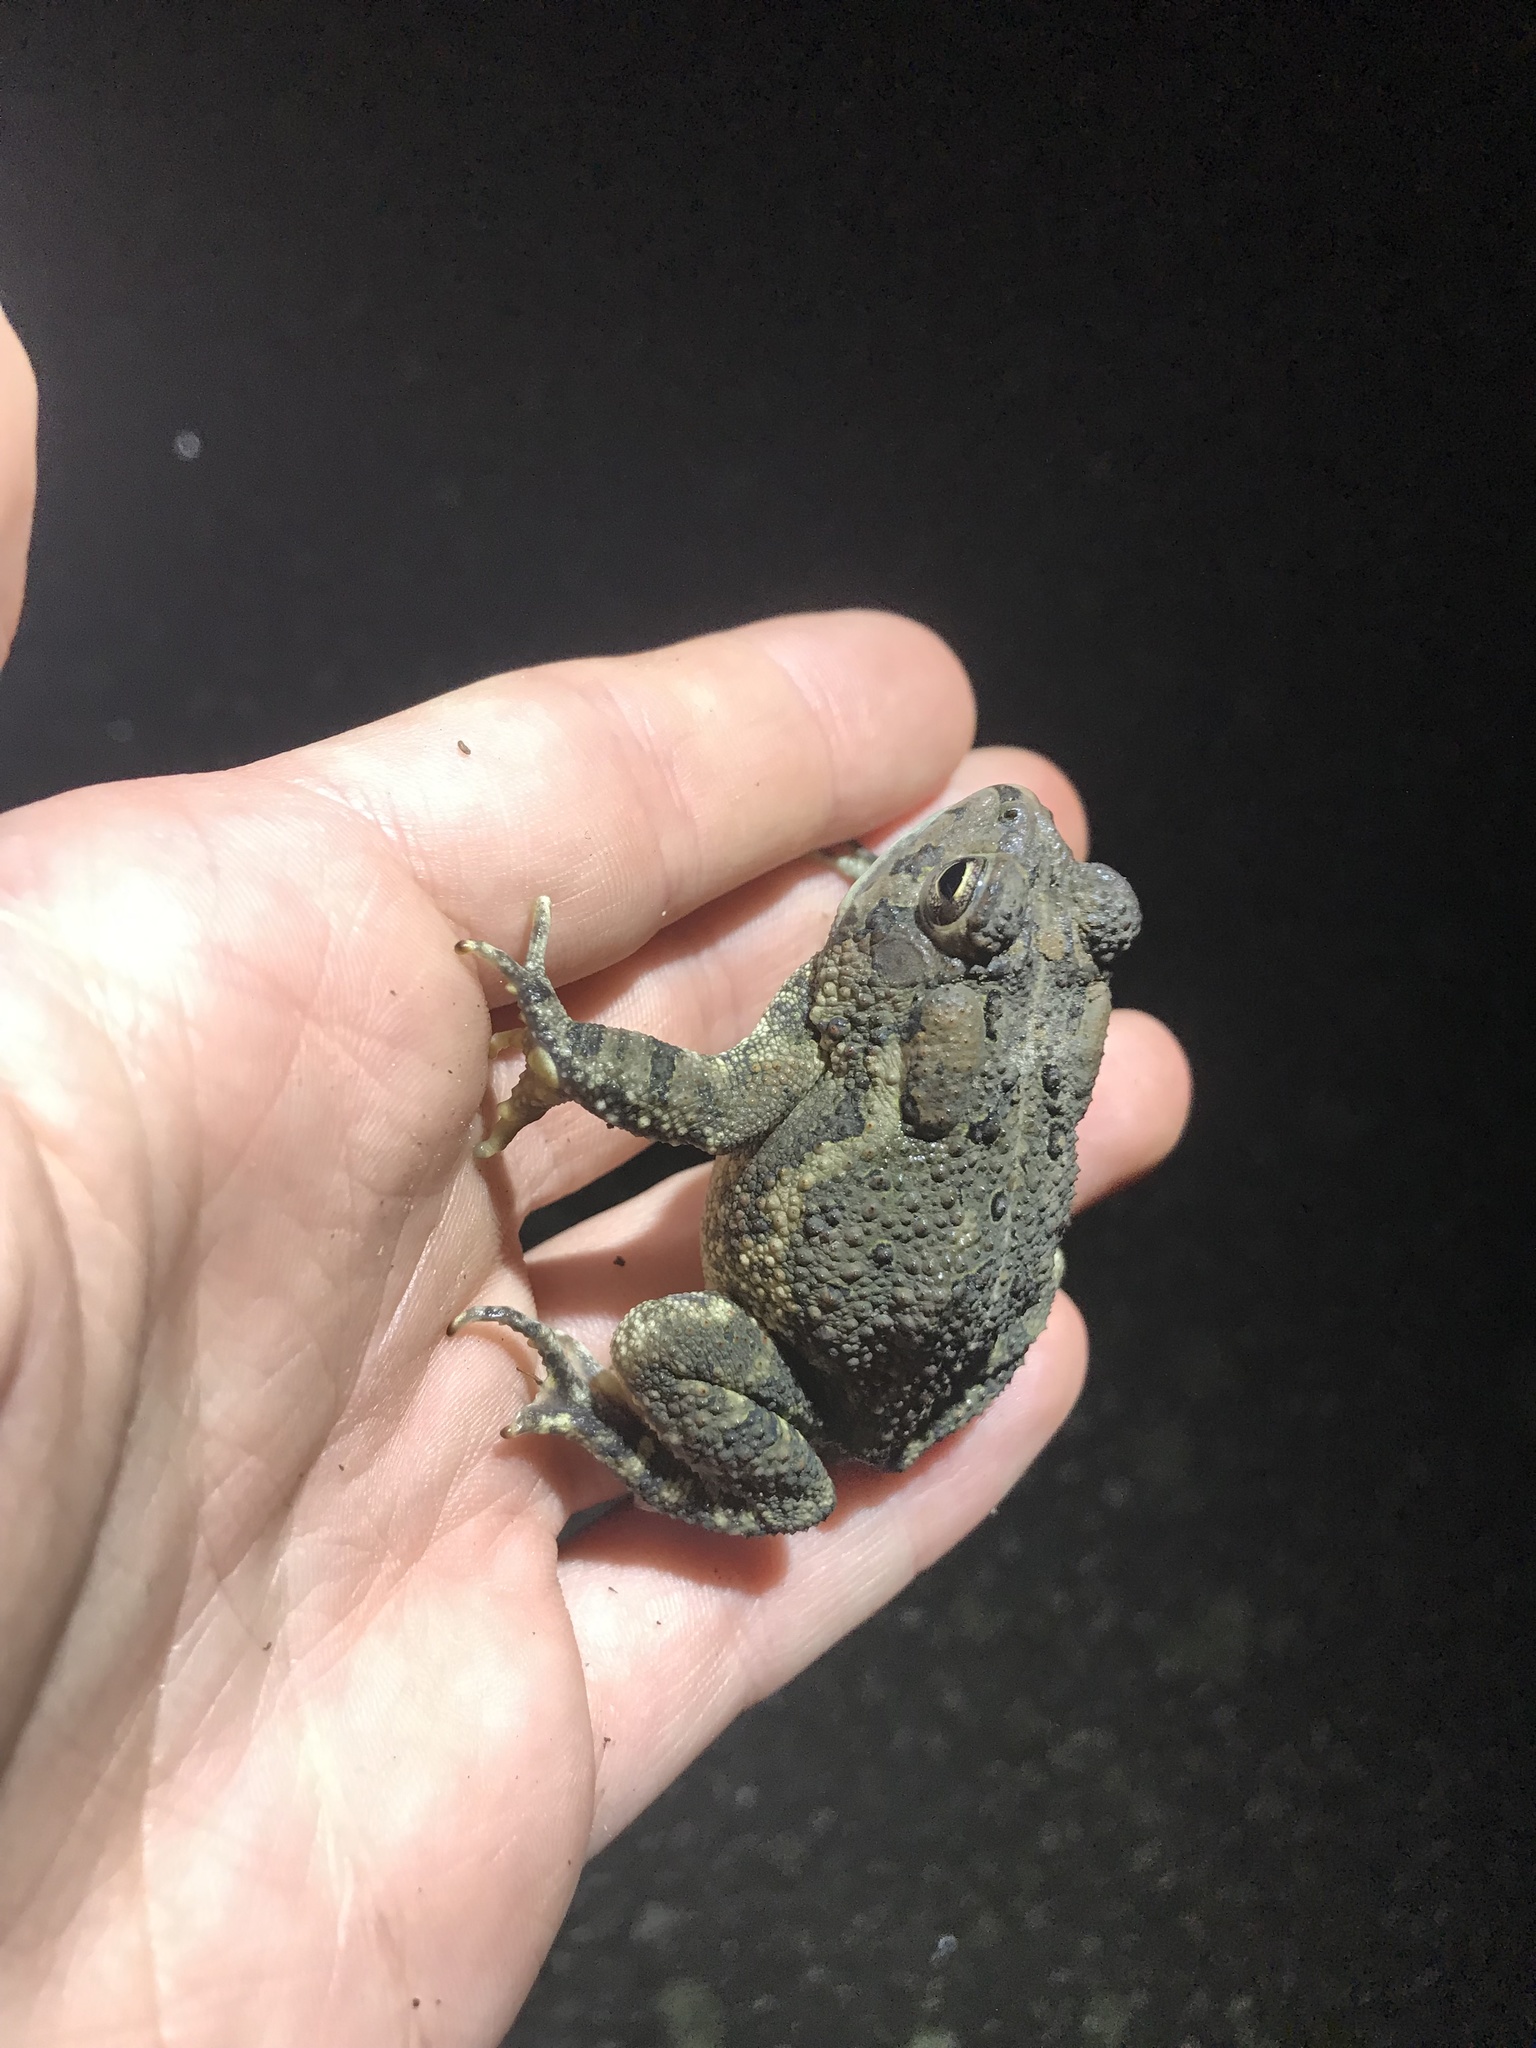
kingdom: Animalia
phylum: Chordata
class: Amphibia
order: Anura
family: Bufonidae
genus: Anaxyrus
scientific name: Anaxyrus fowleri
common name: Fowler's toad
